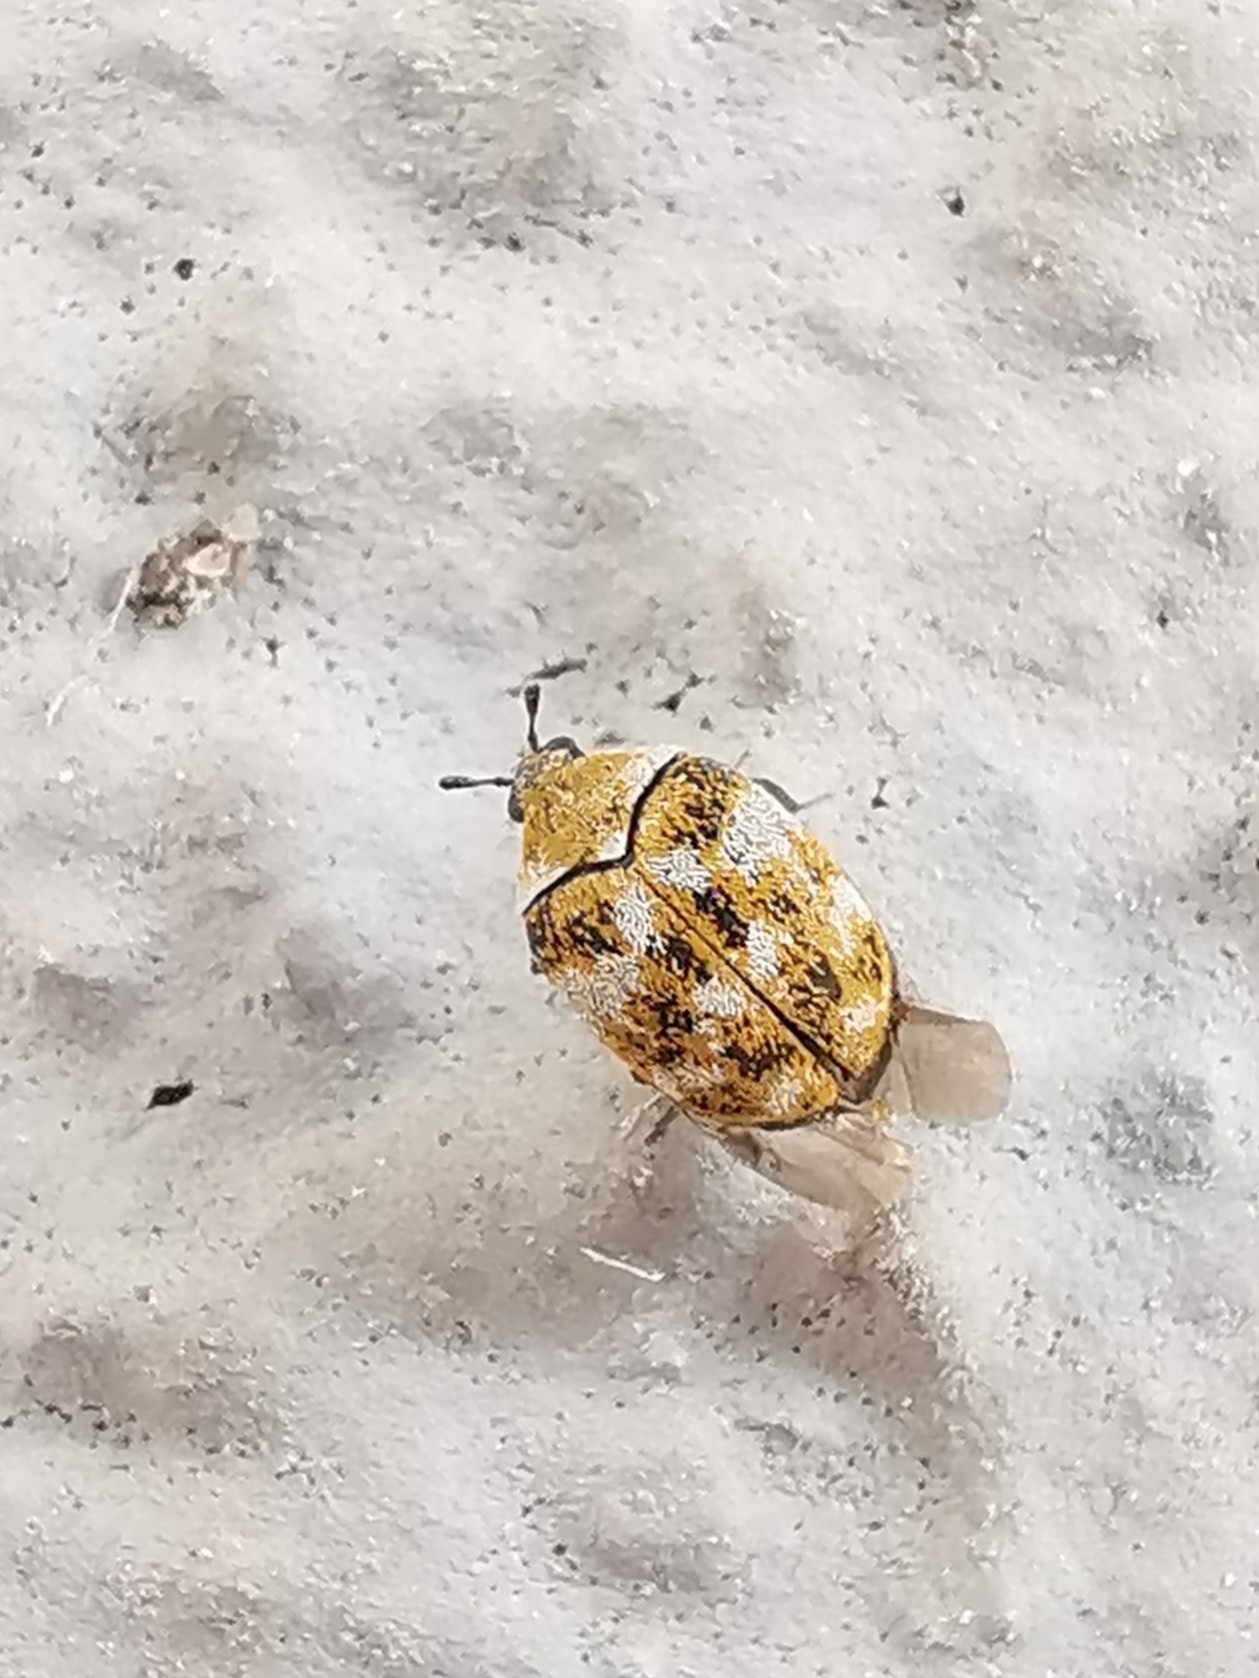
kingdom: Animalia
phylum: Arthropoda
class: Insecta
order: Coleoptera
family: Dermestidae
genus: Anthrenus
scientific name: Anthrenus verbasci
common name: Varied carpet beetle
